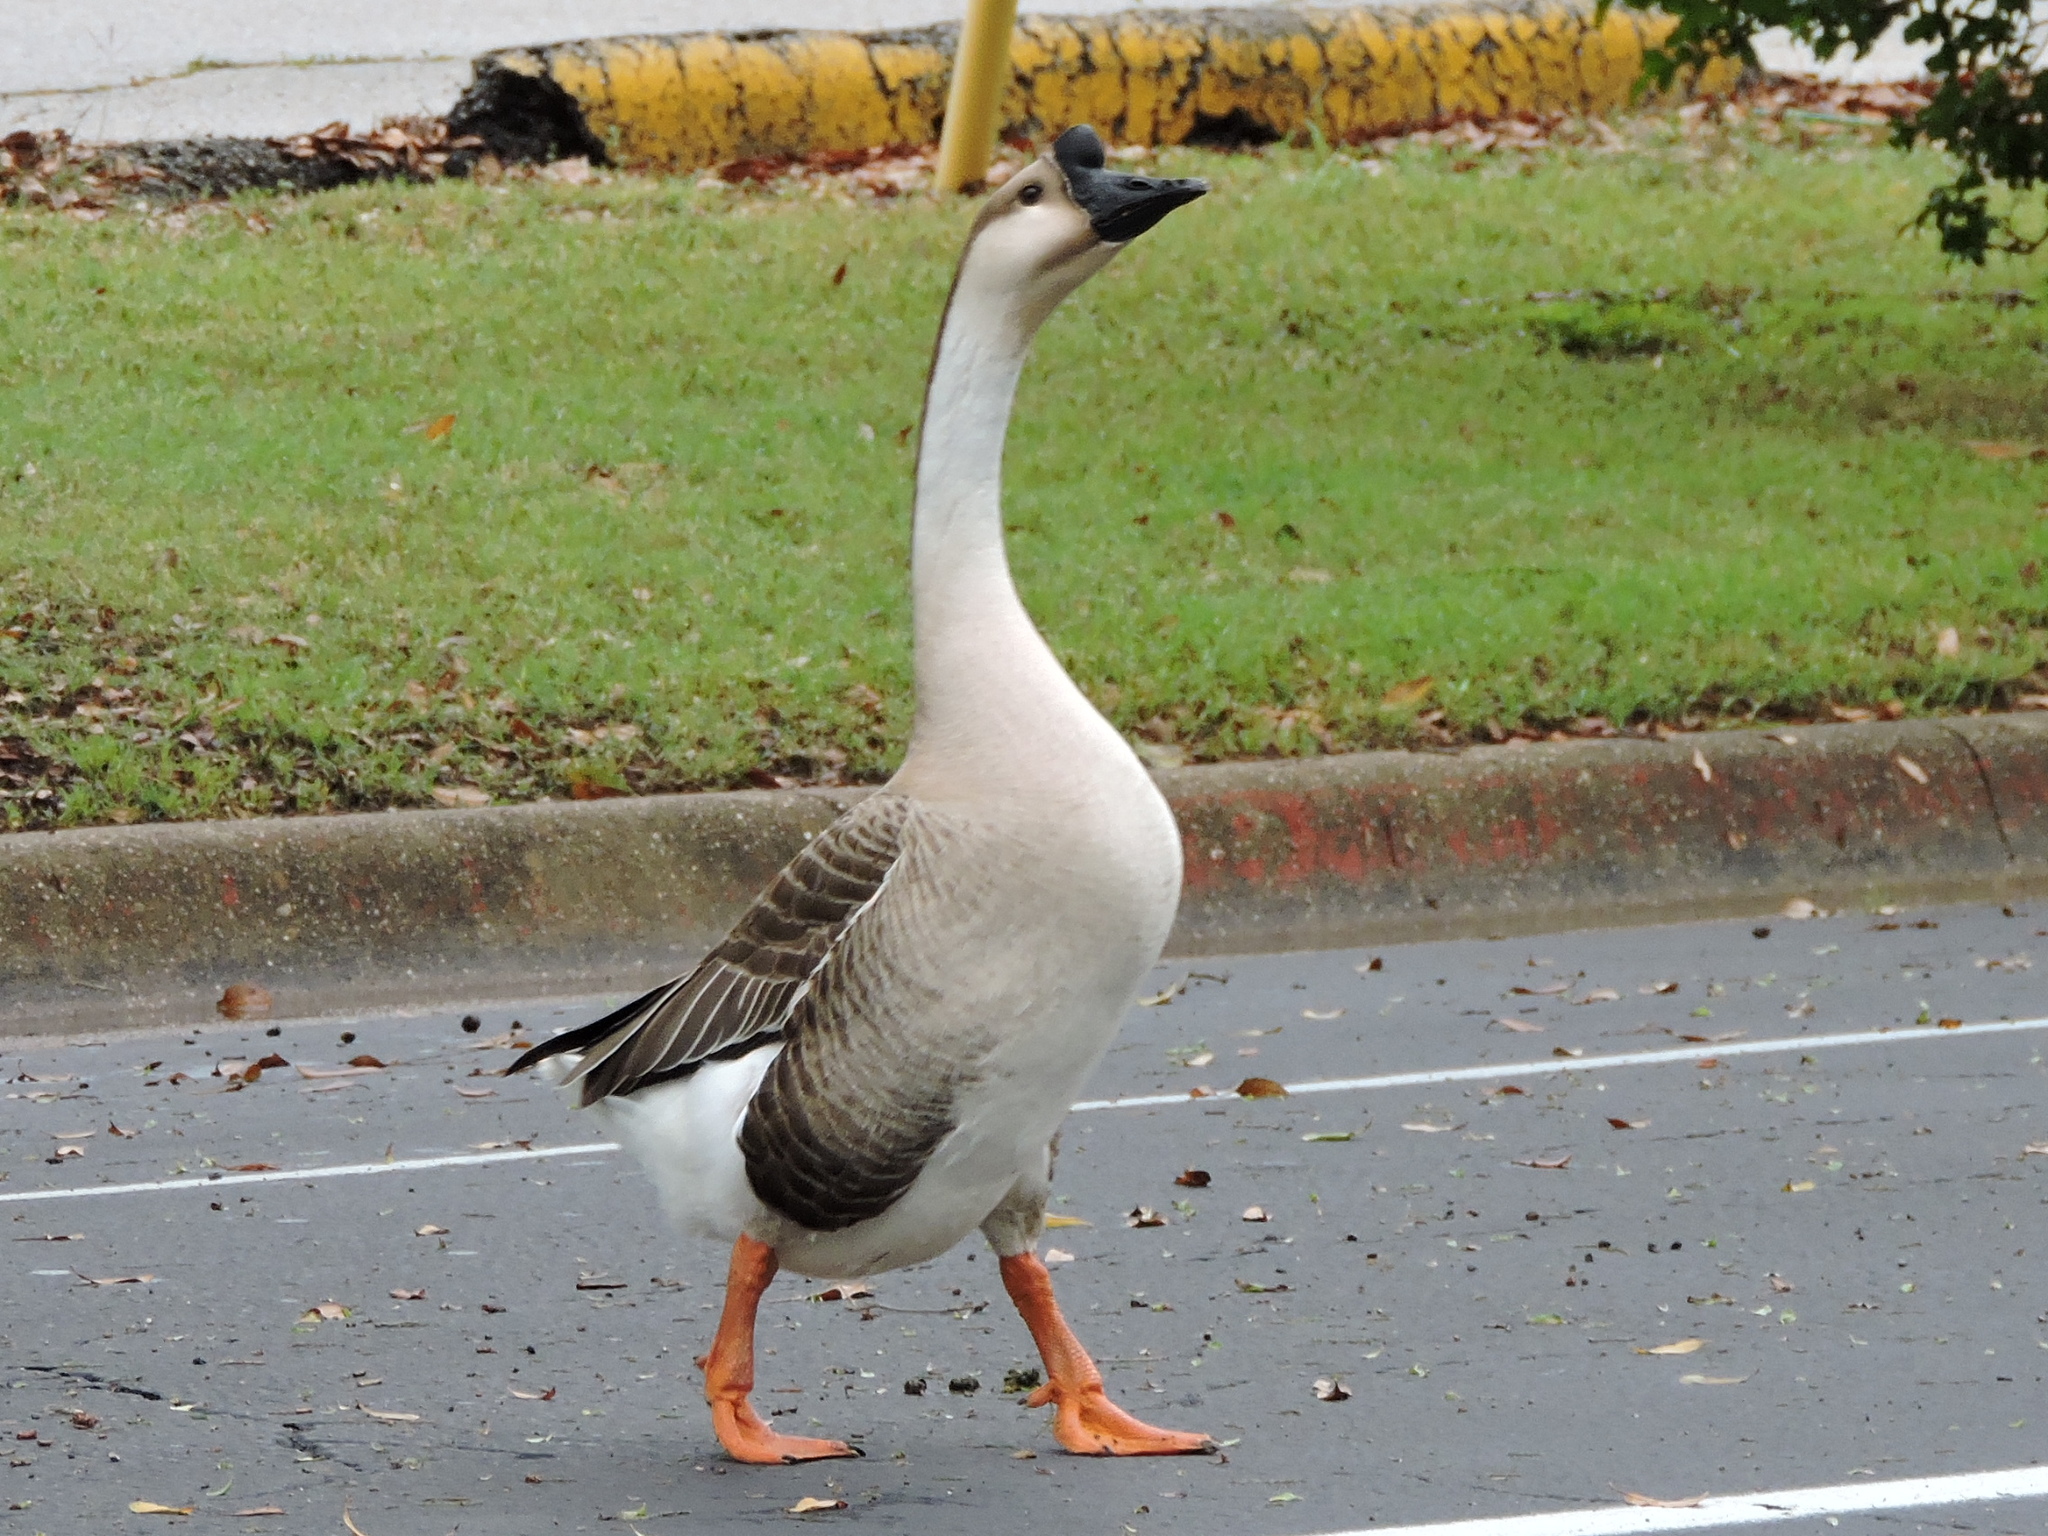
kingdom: Animalia
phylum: Chordata
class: Aves
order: Anseriformes
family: Anatidae
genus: Anser
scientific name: Anser cygnoides
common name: Swan goose
